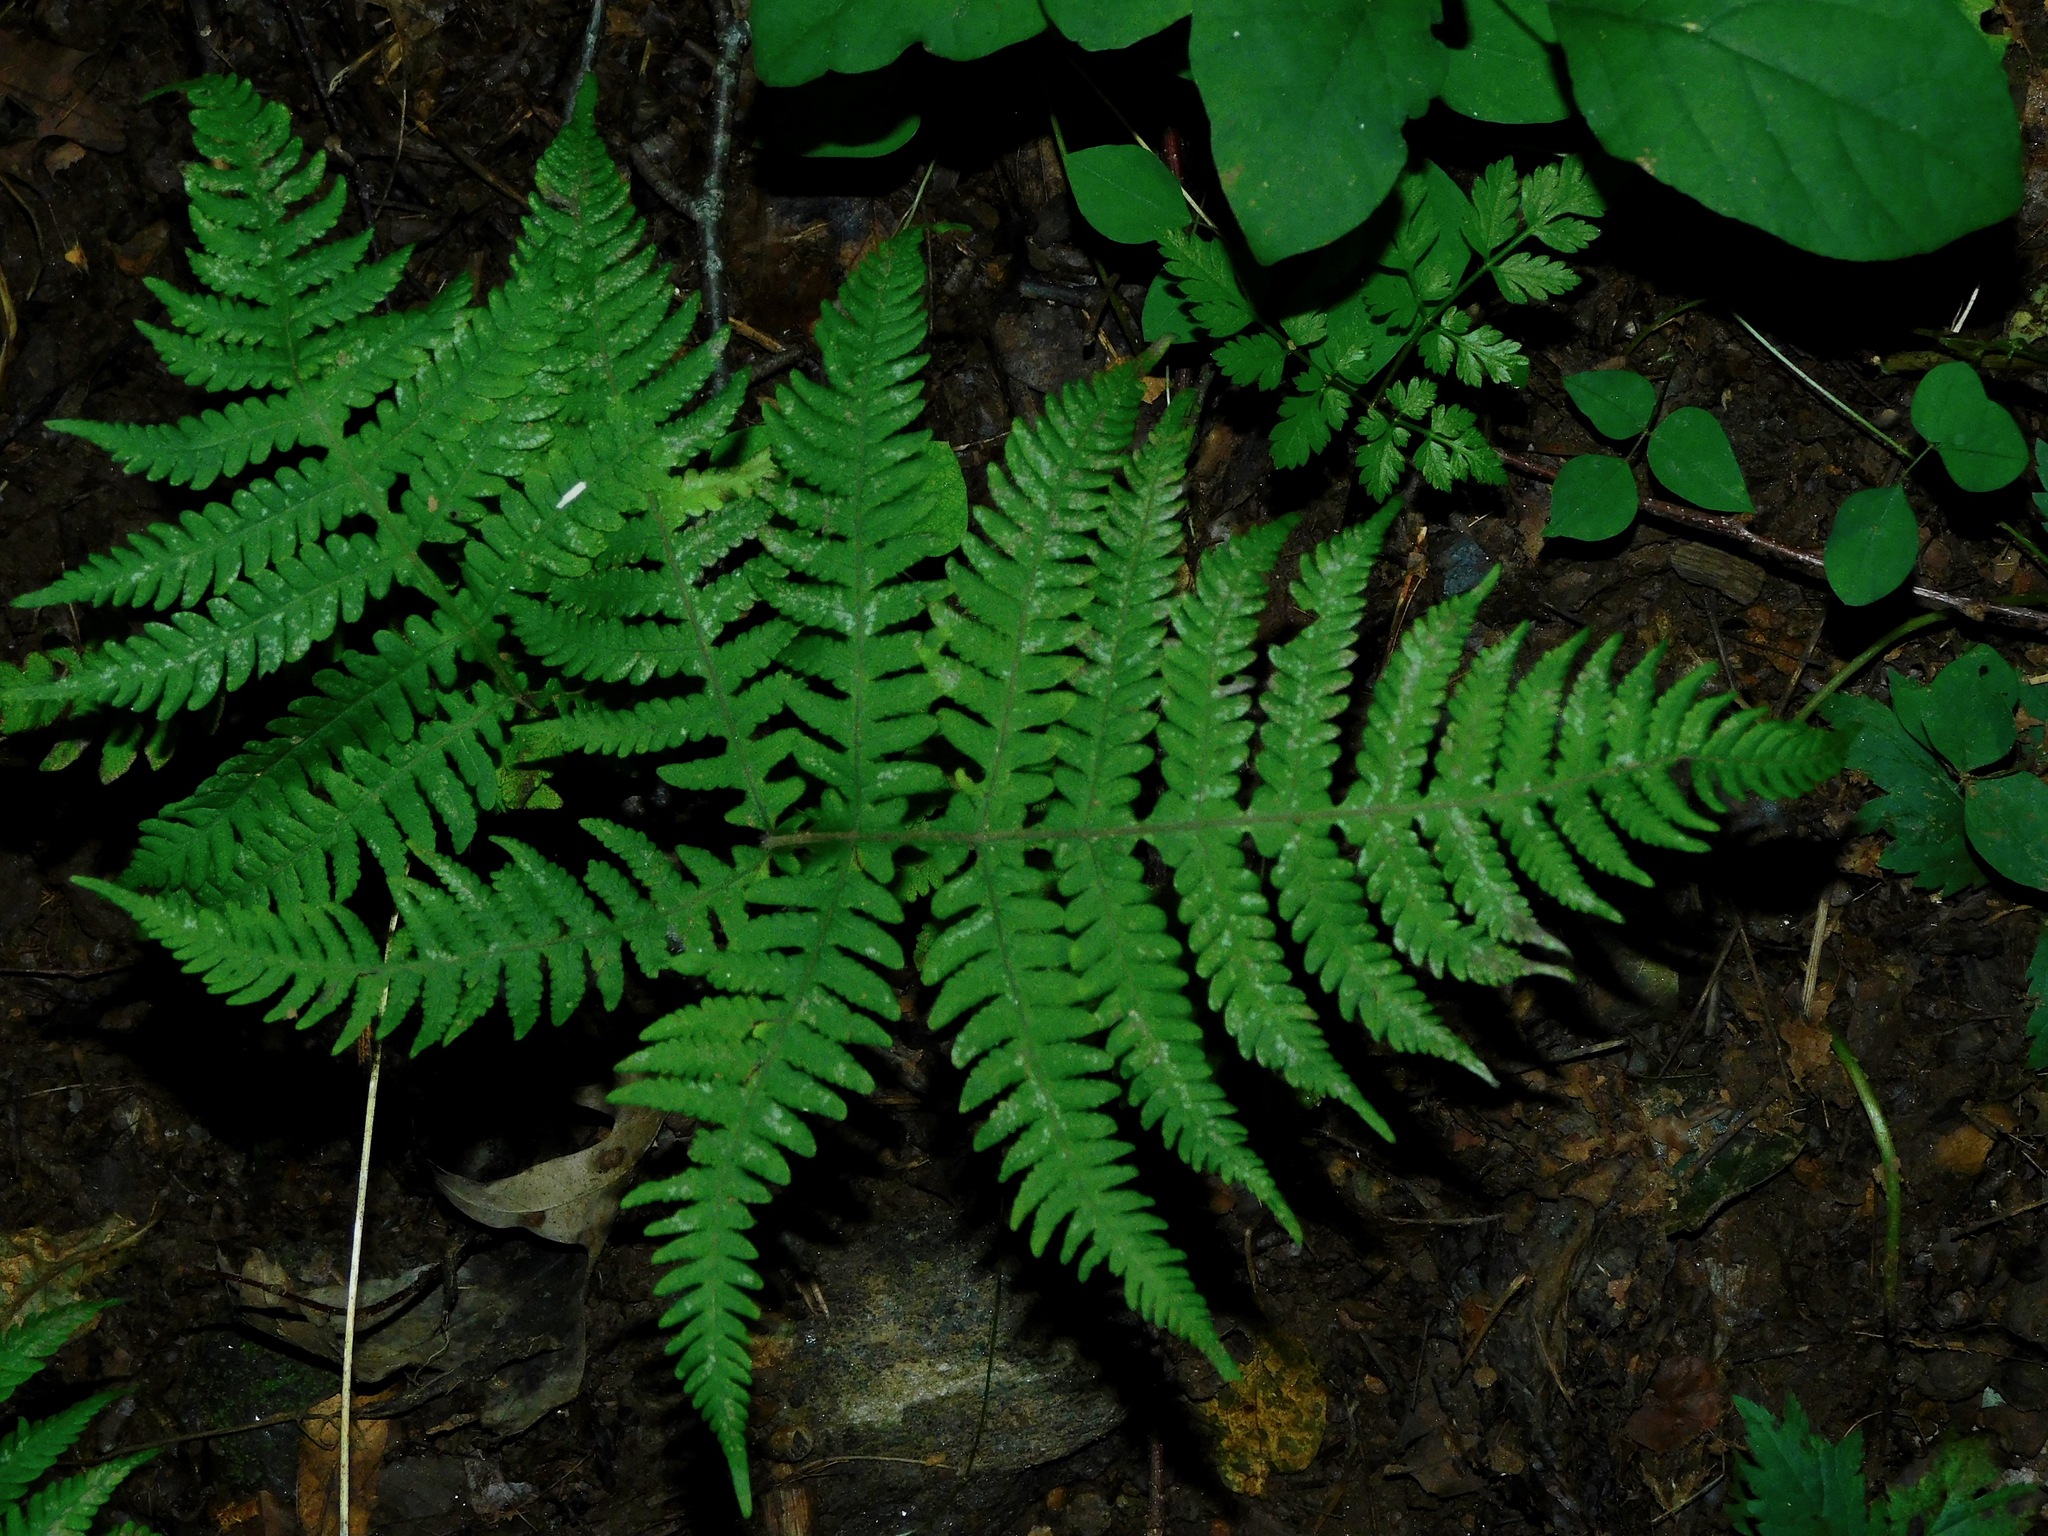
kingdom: Plantae
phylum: Tracheophyta
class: Polypodiopsida
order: Polypodiales
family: Thelypteridaceae
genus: Phegopteris
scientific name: Phegopteris hexagonoptera
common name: Broad beech fern
